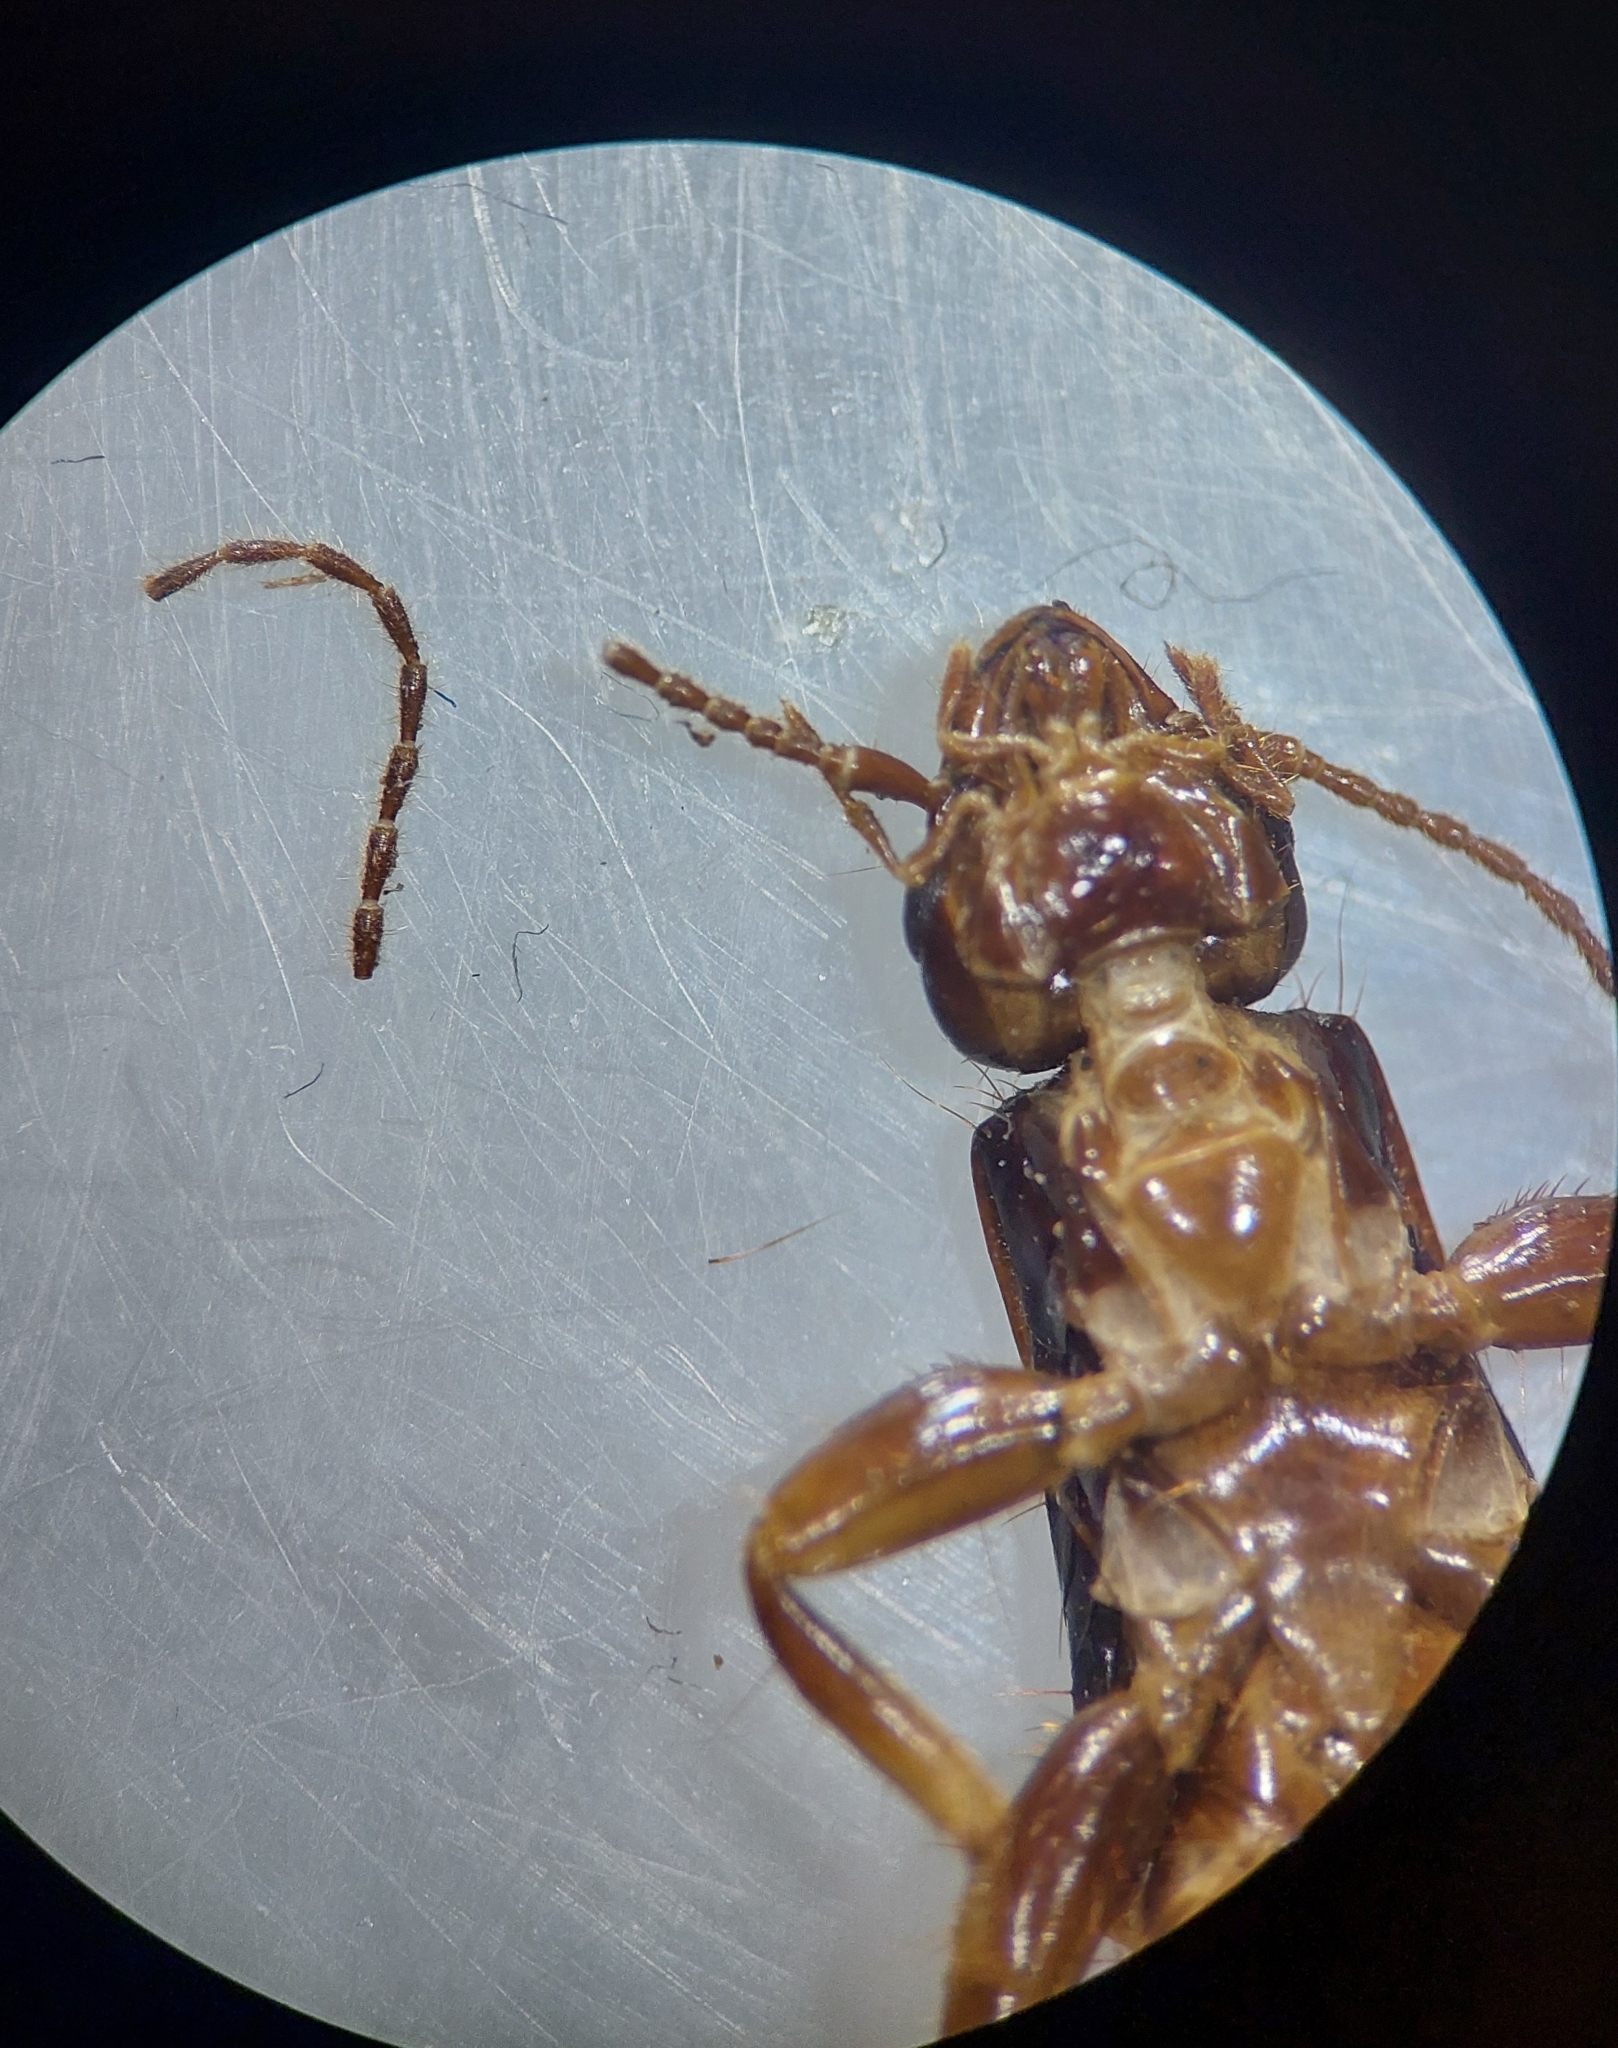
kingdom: Animalia
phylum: Arthropoda
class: Insecta
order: Dermaptera
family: Labiduridae
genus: Gonolabidura
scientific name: Gonolabidura piligera
